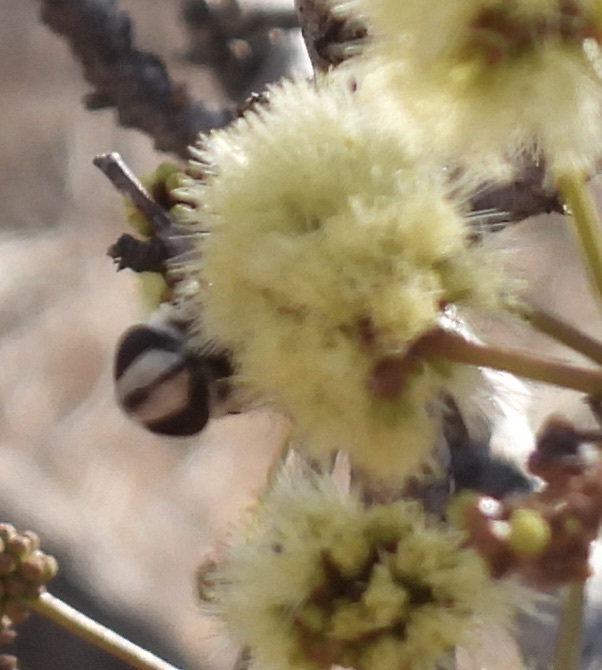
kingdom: Animalia
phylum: Arthropoda
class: Insecta
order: Diptera
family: Syrphidae
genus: Copestylum
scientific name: Copestylum avidum
